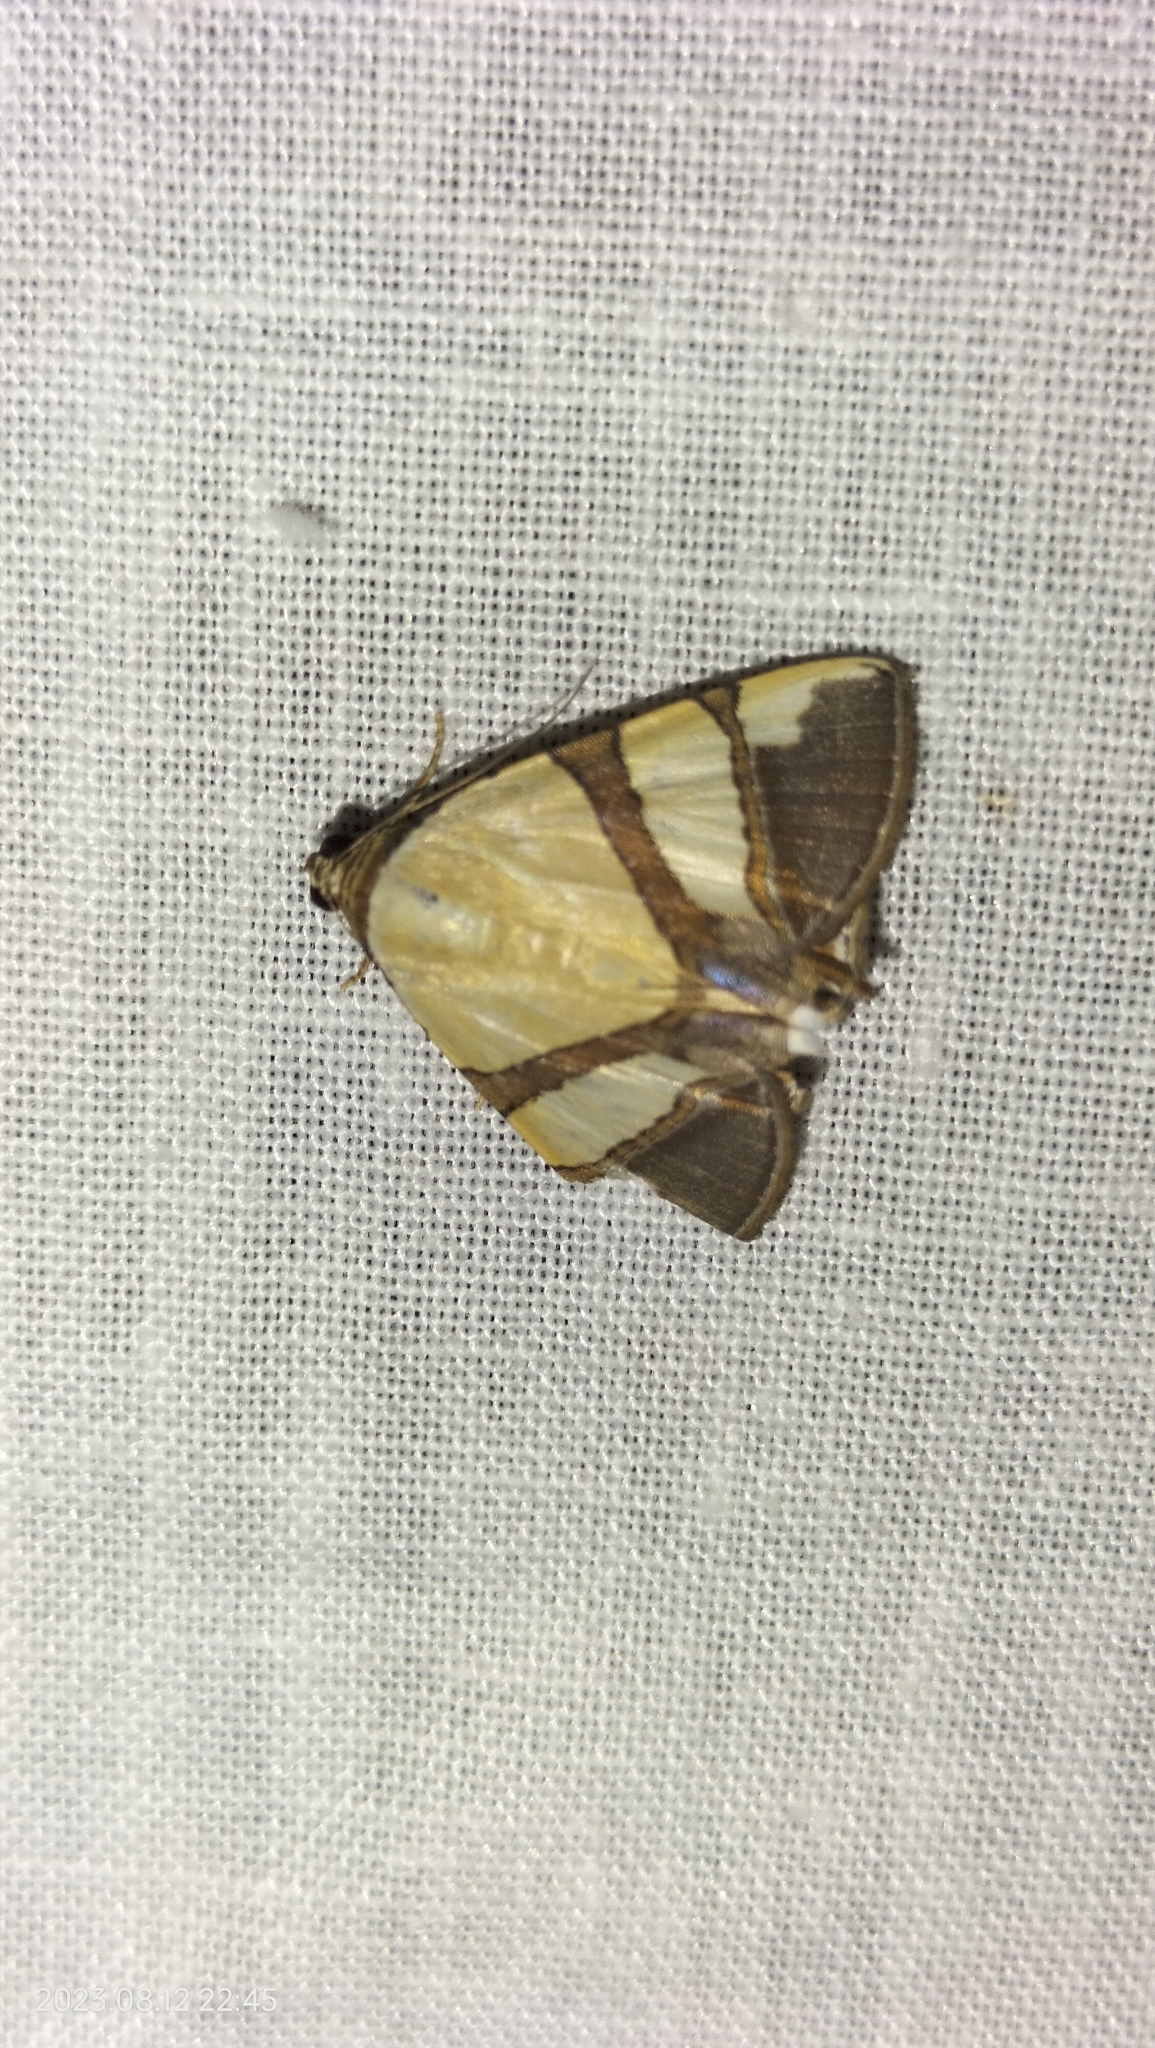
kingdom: Animalia
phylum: Arthropoda
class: Insecta
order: Lepidoptera
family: Erebidae
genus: Eulepidotis
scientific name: Eulepidotis julianata
